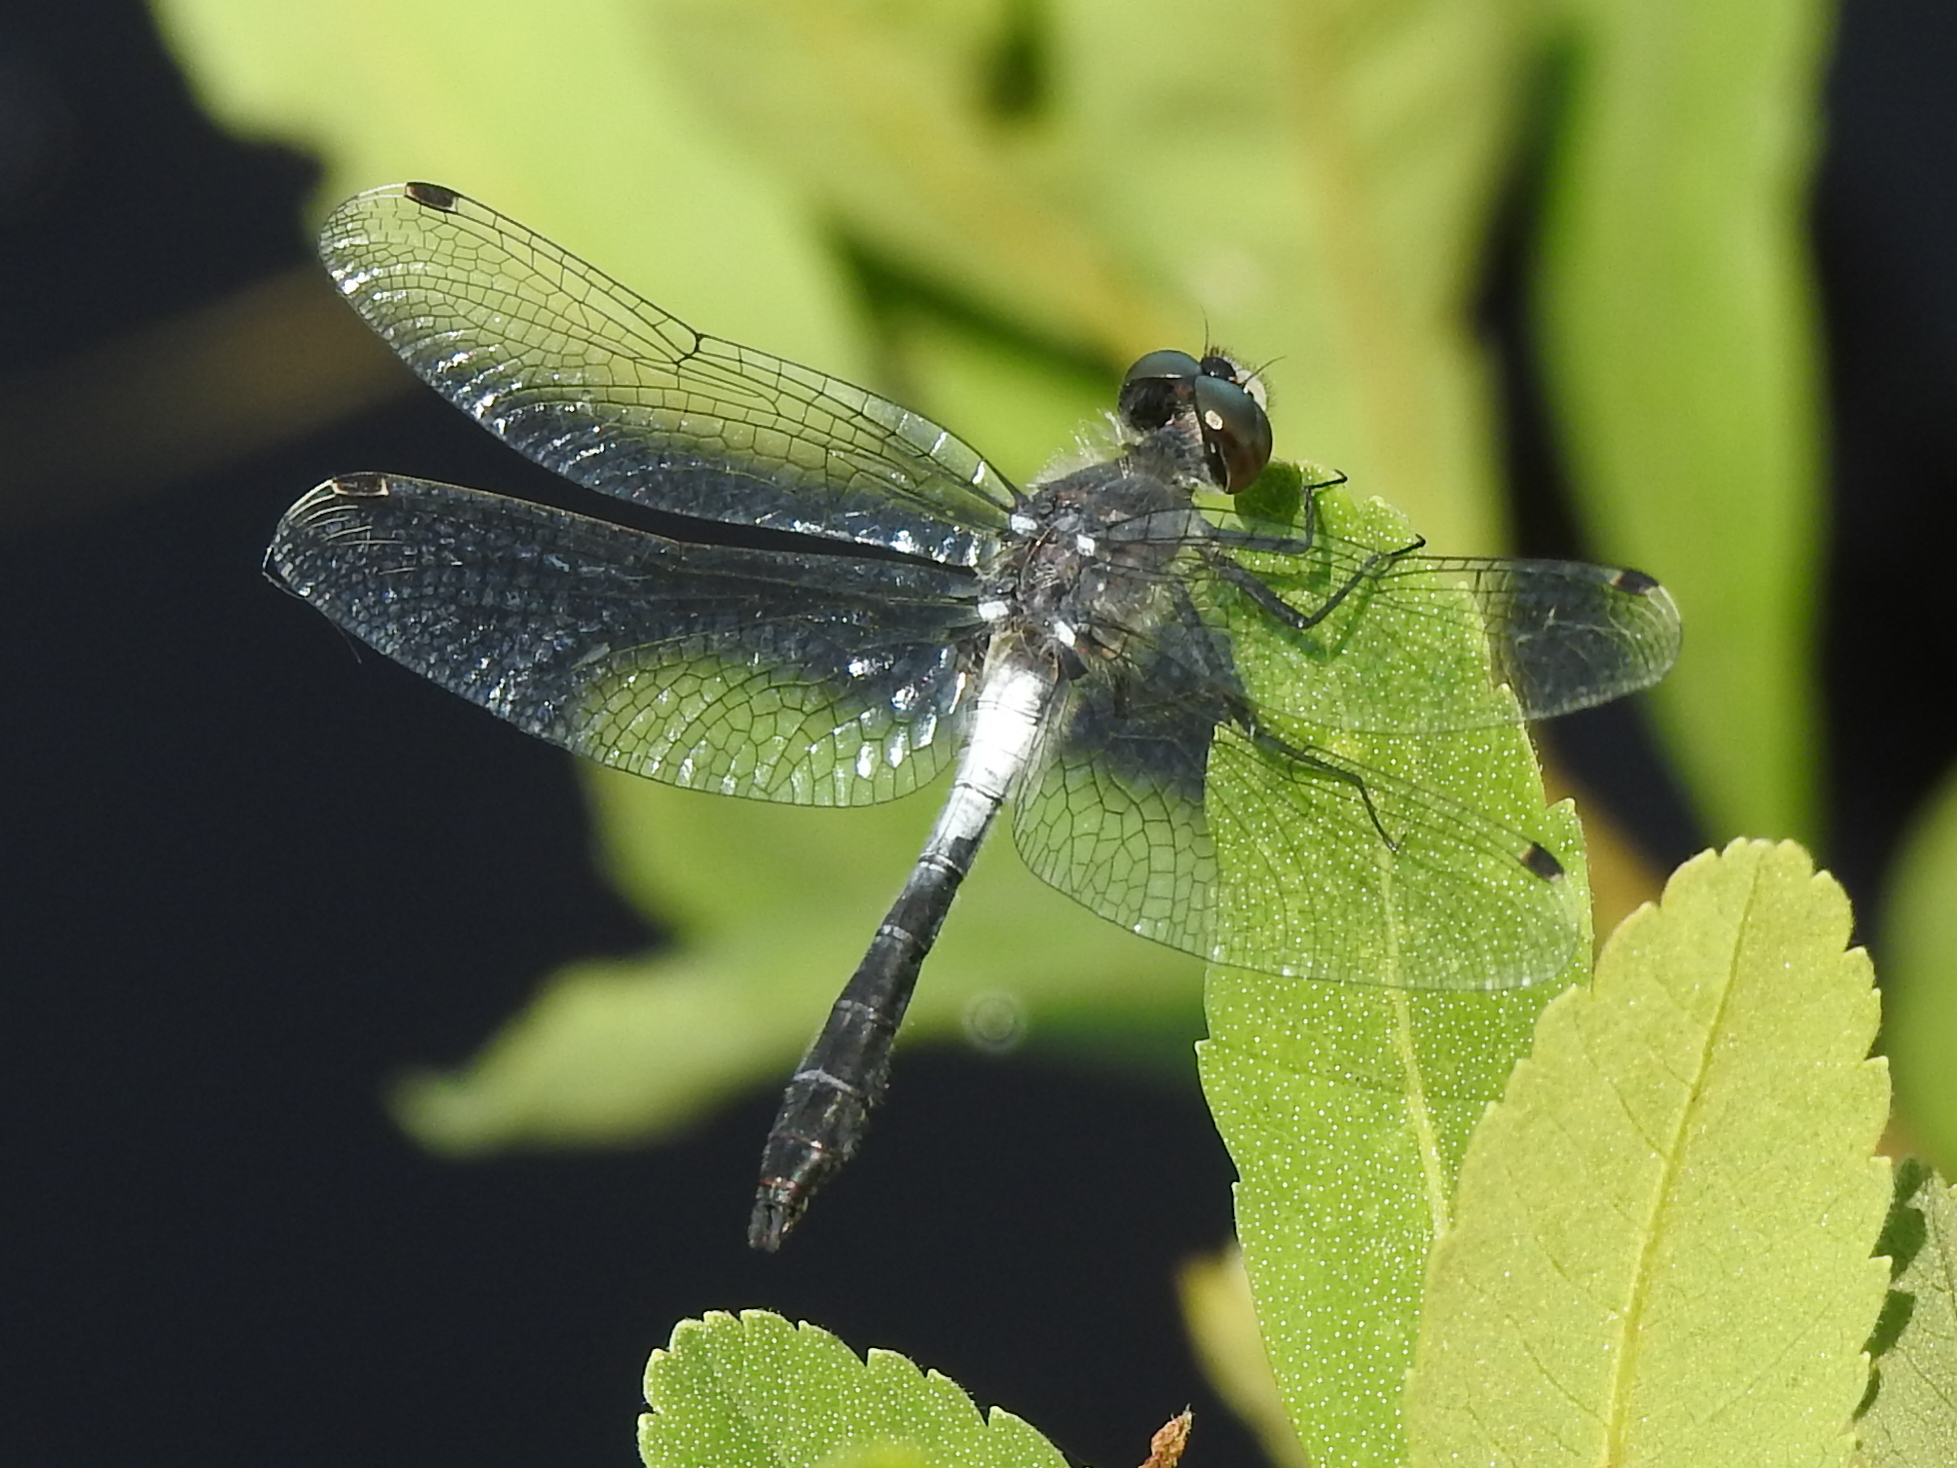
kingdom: Animalia
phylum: Arthropoda
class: Insecta
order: Odonata
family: Libellulidae
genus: Leucorrhinia
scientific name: Leucorrhinia frigida
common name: Frosted whiteface
